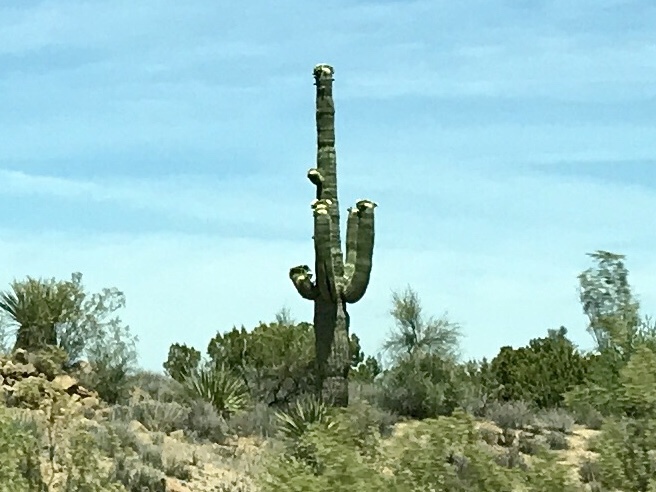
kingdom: Plantae
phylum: Tracheophyta
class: Magnoliopsida
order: Caryophyllales
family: Cactaceae
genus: Carnegiea
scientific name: Carnegiea gigantea
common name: Saguaro
